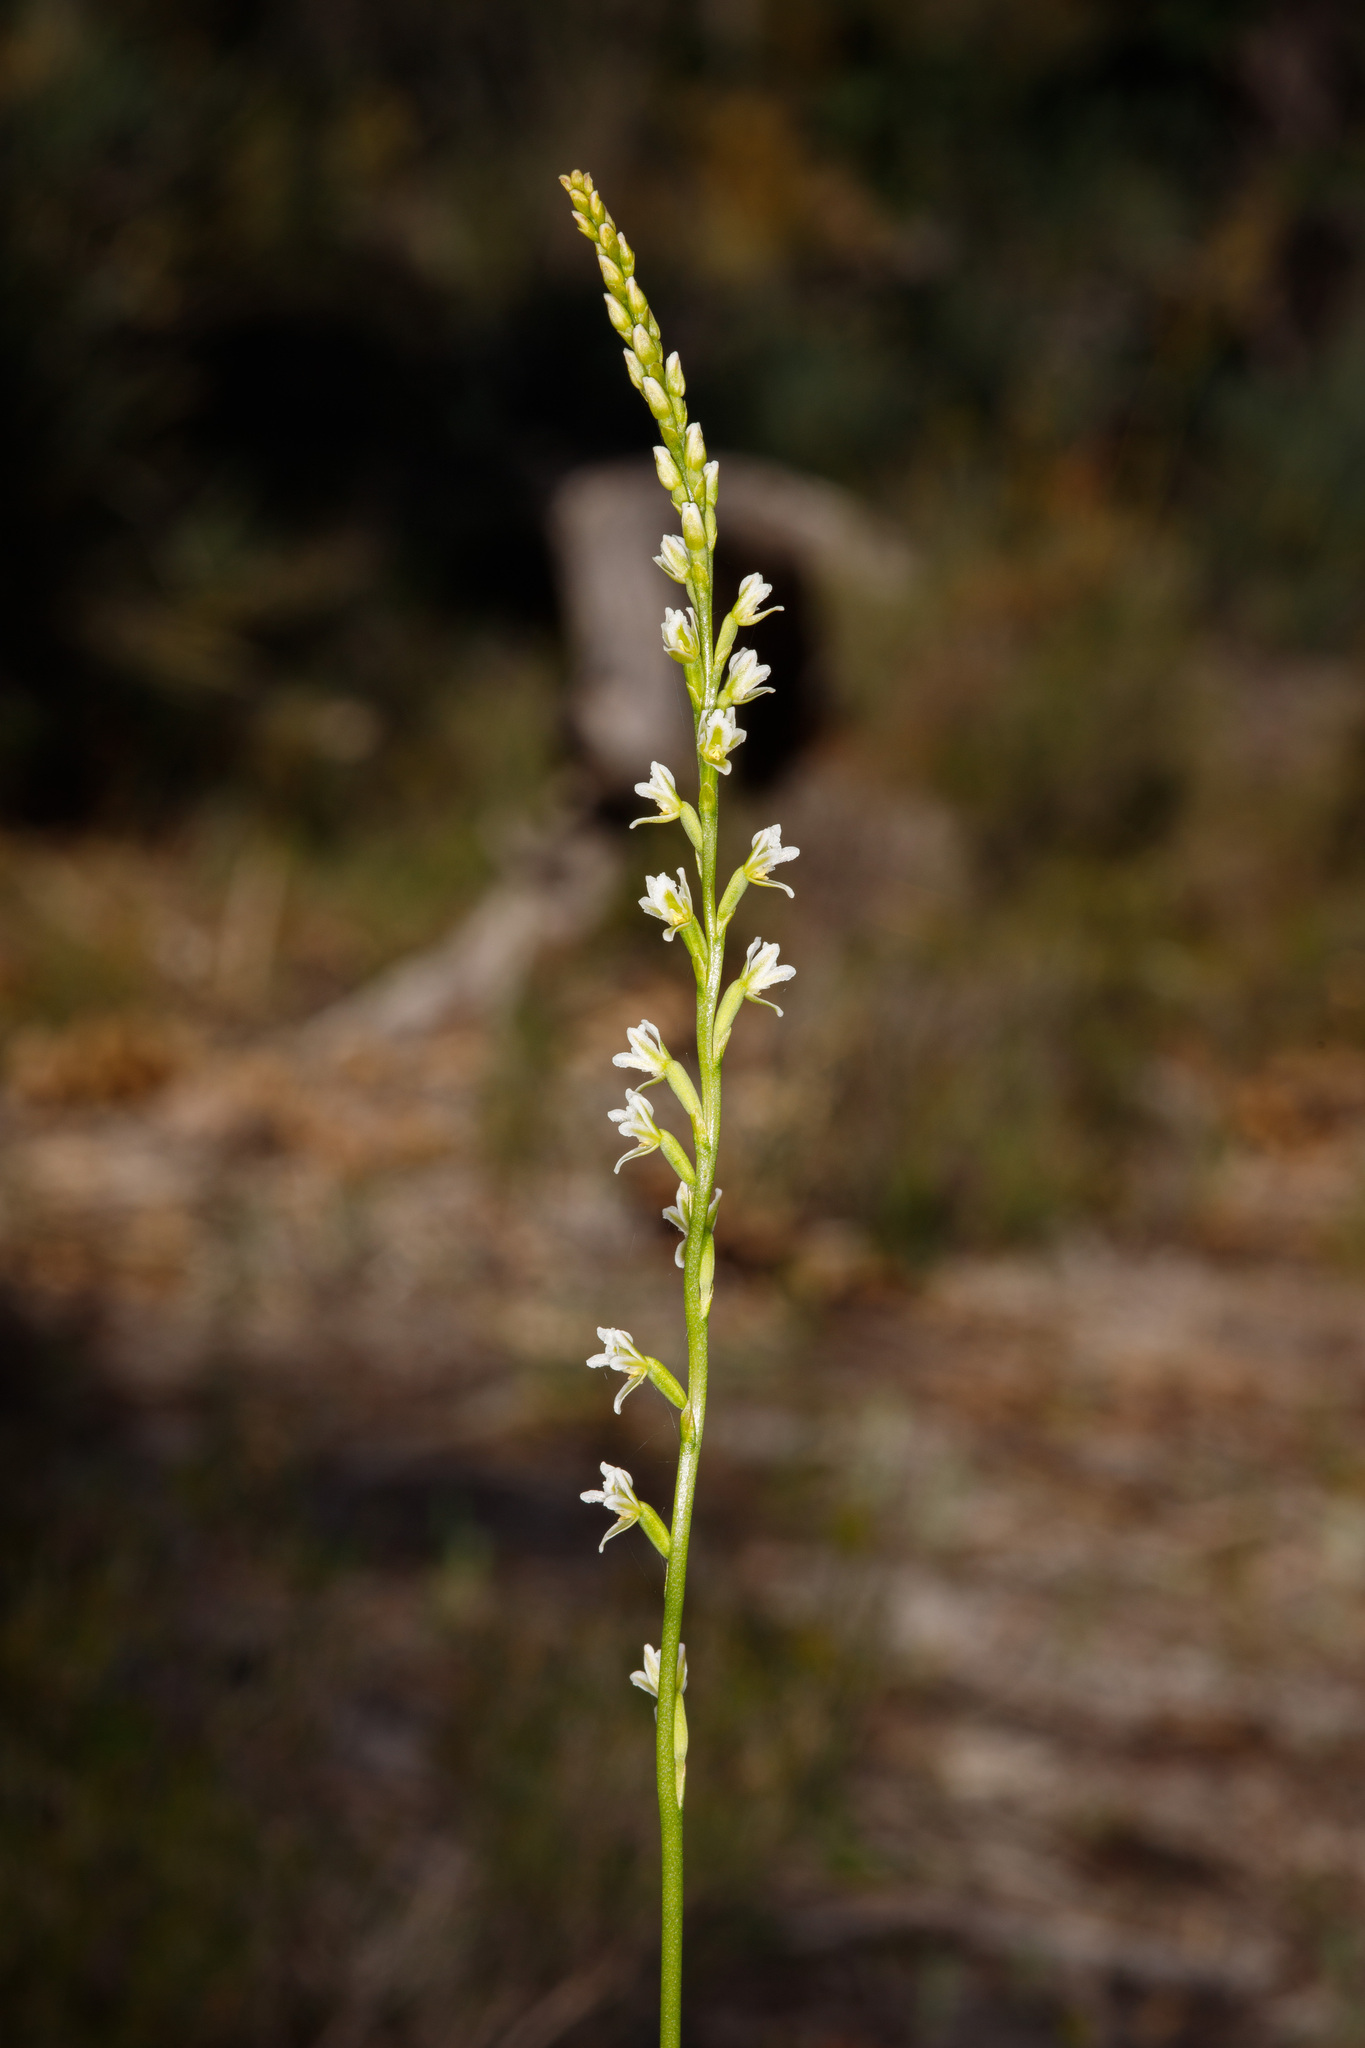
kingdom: Plantae
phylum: Tracheophyta
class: Liliopsida
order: Asparagales
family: Orchidaceae
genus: Prasophyllum
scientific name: Prasophyllum plumiforme
